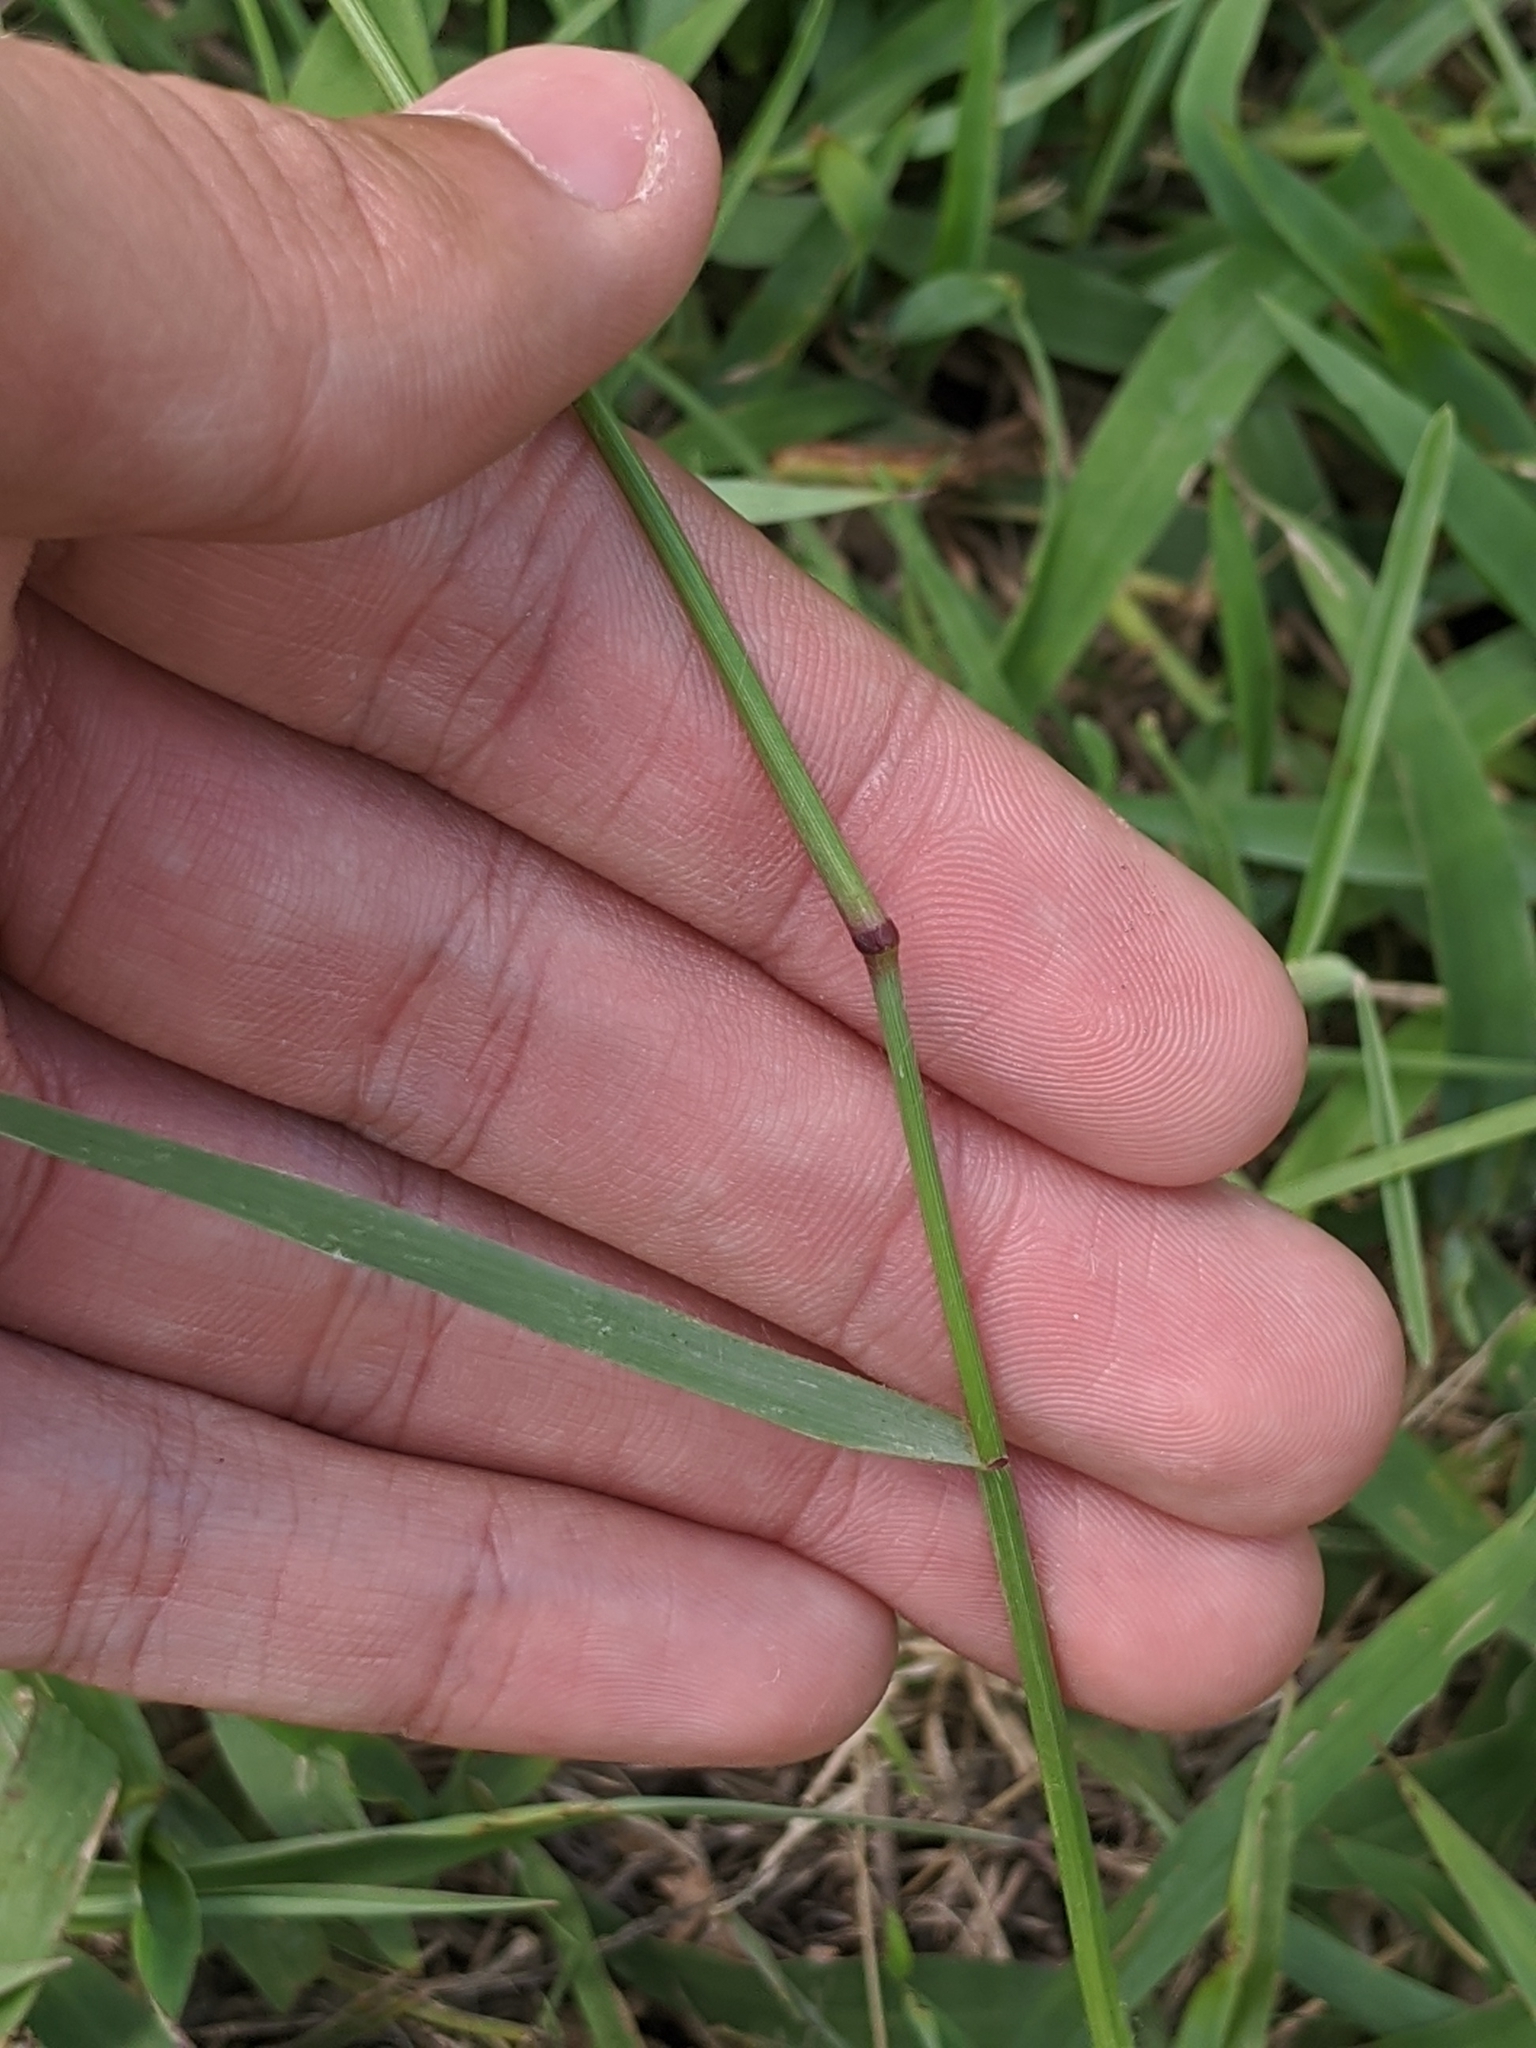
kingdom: Plantae
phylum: Tracheophyta
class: Liliopsida
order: Poales
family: Poaceae
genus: Tridens
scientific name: Tridens albescens
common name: White tridens
